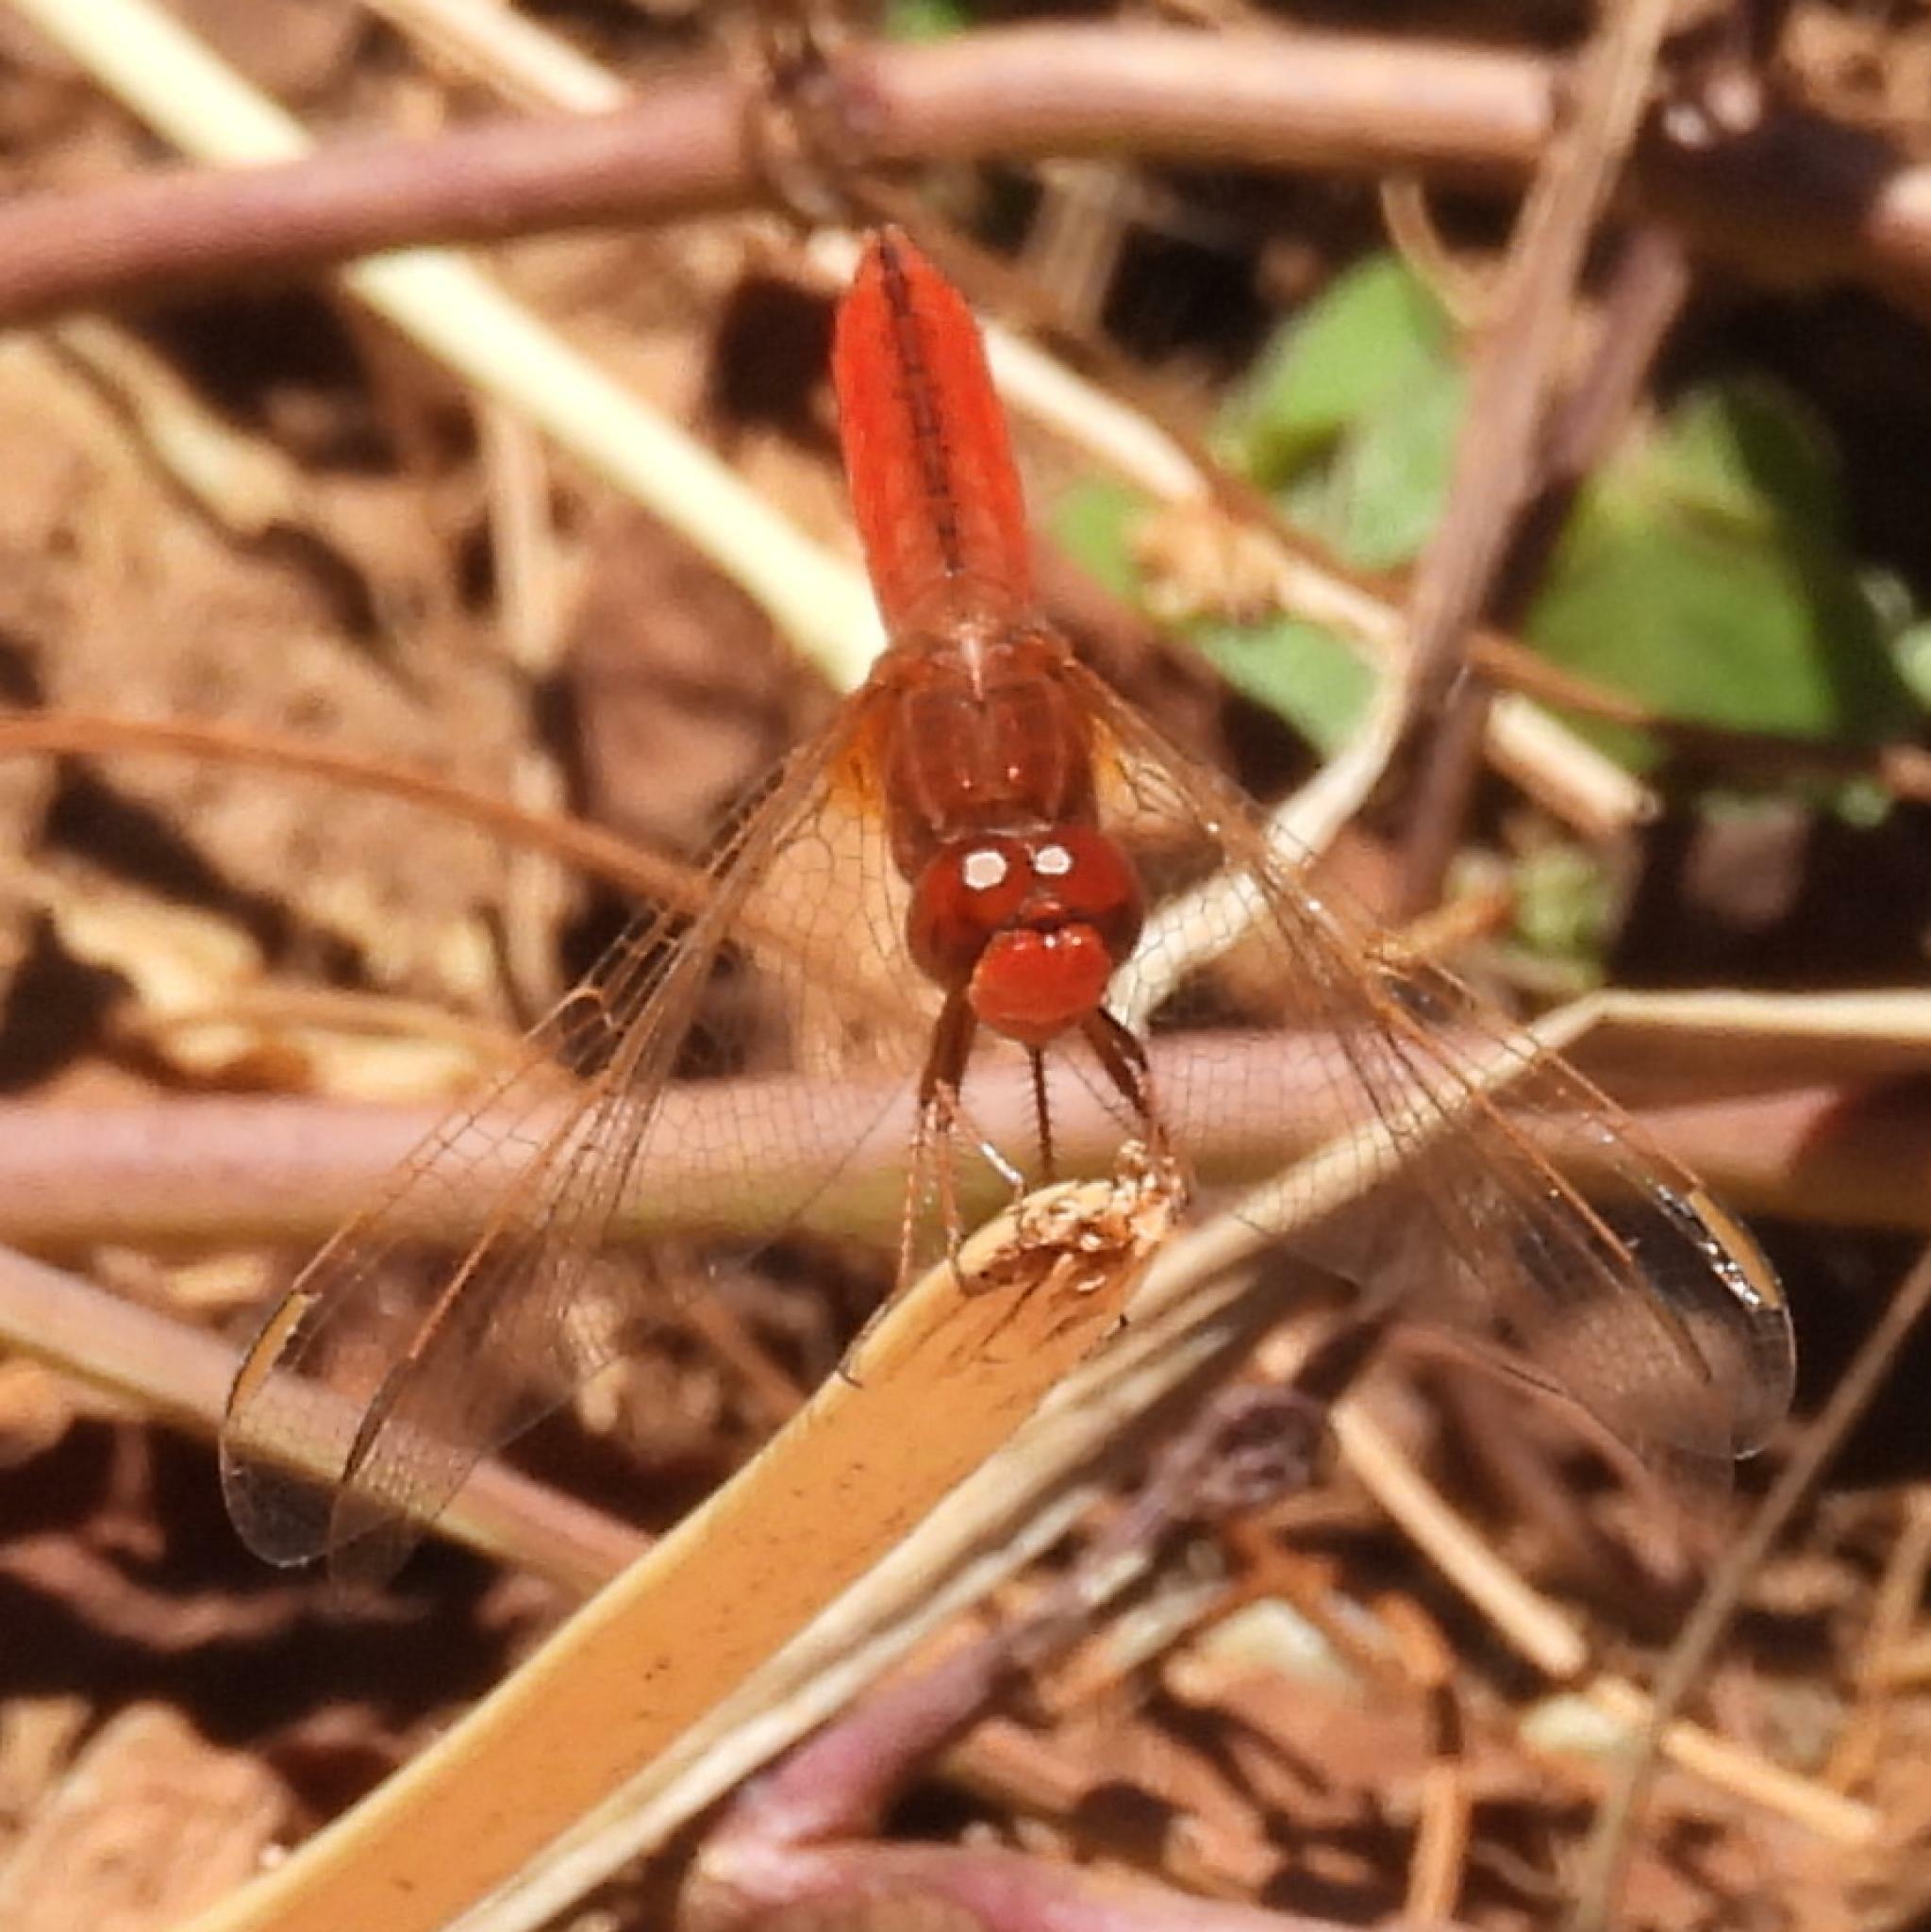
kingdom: Animalia
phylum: Arthropoda
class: Insecta
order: Odonata
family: Libellulidae
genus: Crocothemis
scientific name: Crocothemis erythraea
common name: Scarlet dragonfly
